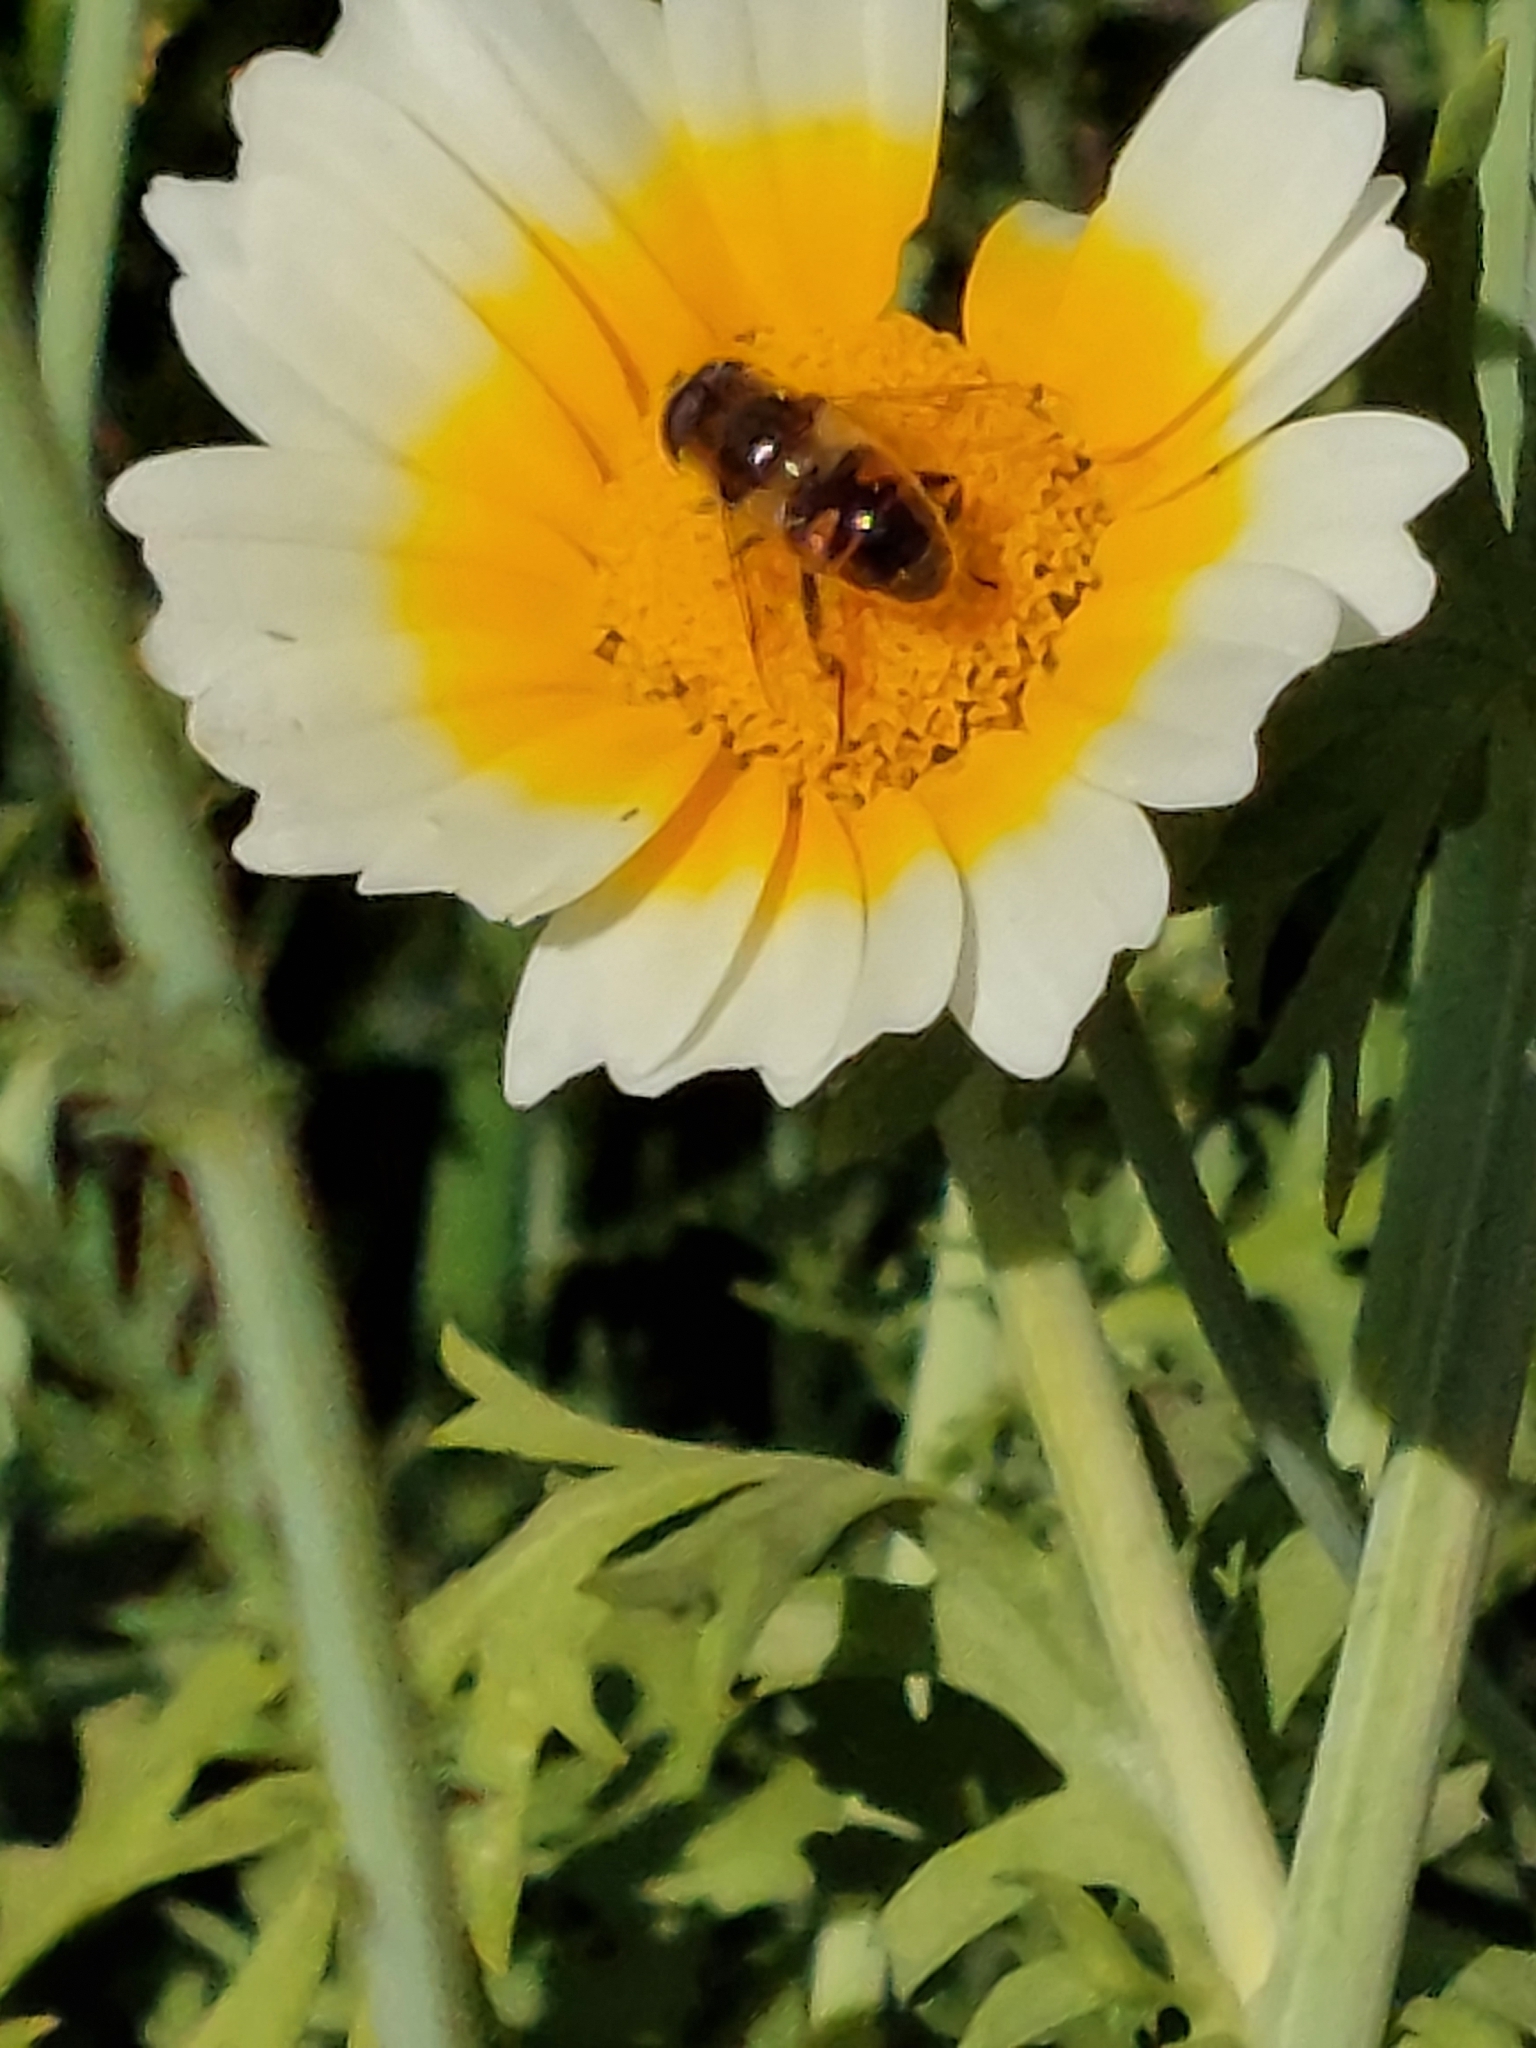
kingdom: Animalia
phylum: Arthropoda
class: Insecta
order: Diptera
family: Syrphidae
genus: Eristalis
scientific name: Eristalis tenax
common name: Drone fly
